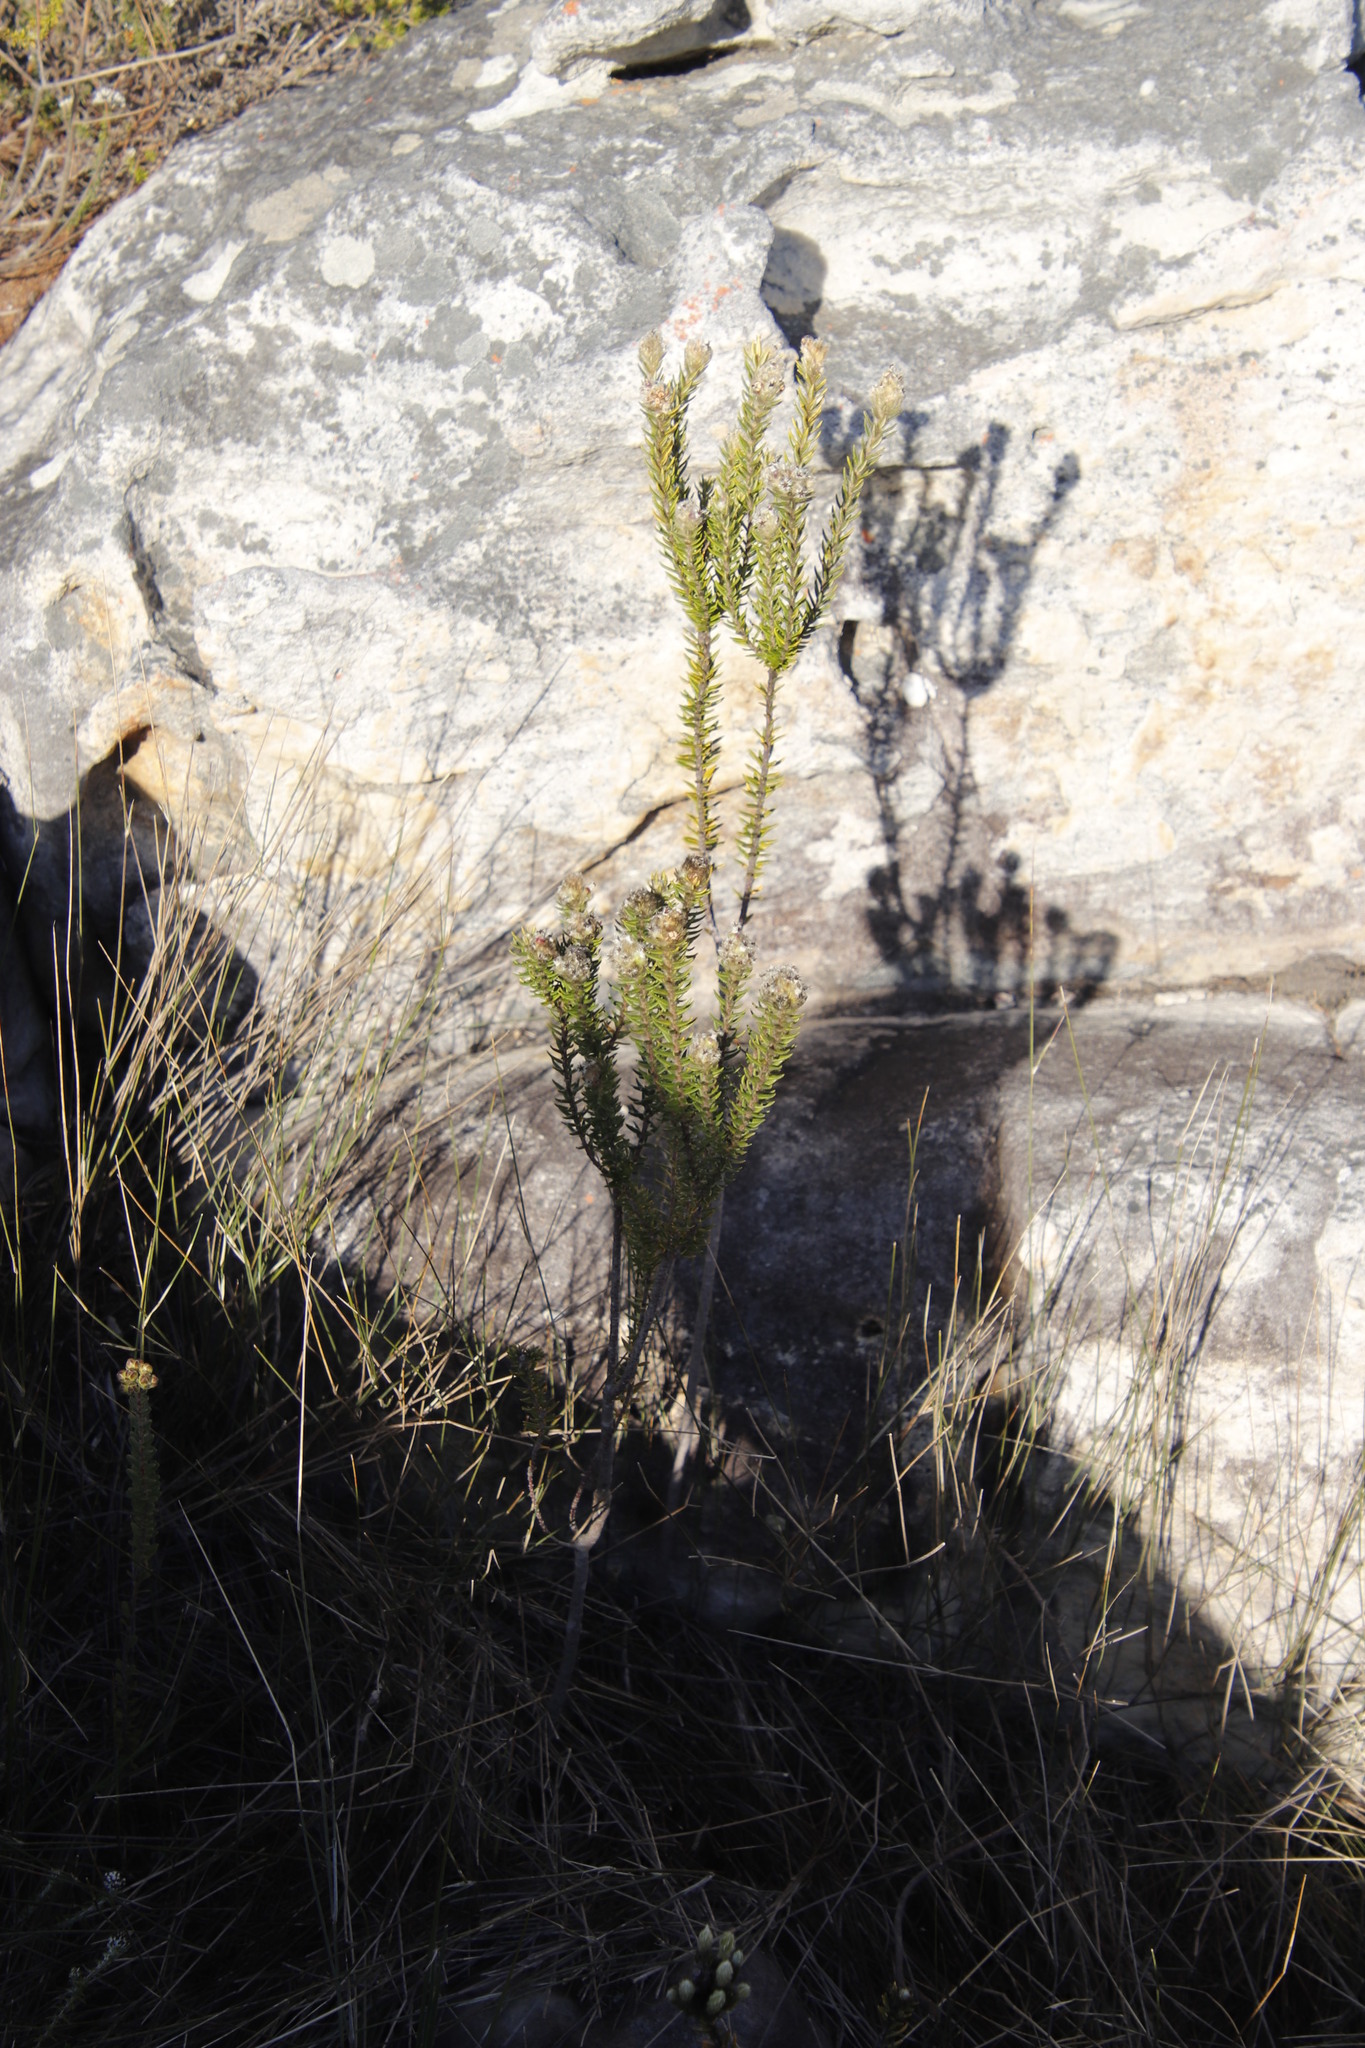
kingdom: Plantae
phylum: Tracheophyta
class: Magnoliopsida
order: Rosales
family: Rhamnaceae
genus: Phylica
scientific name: Phylica strigosa
